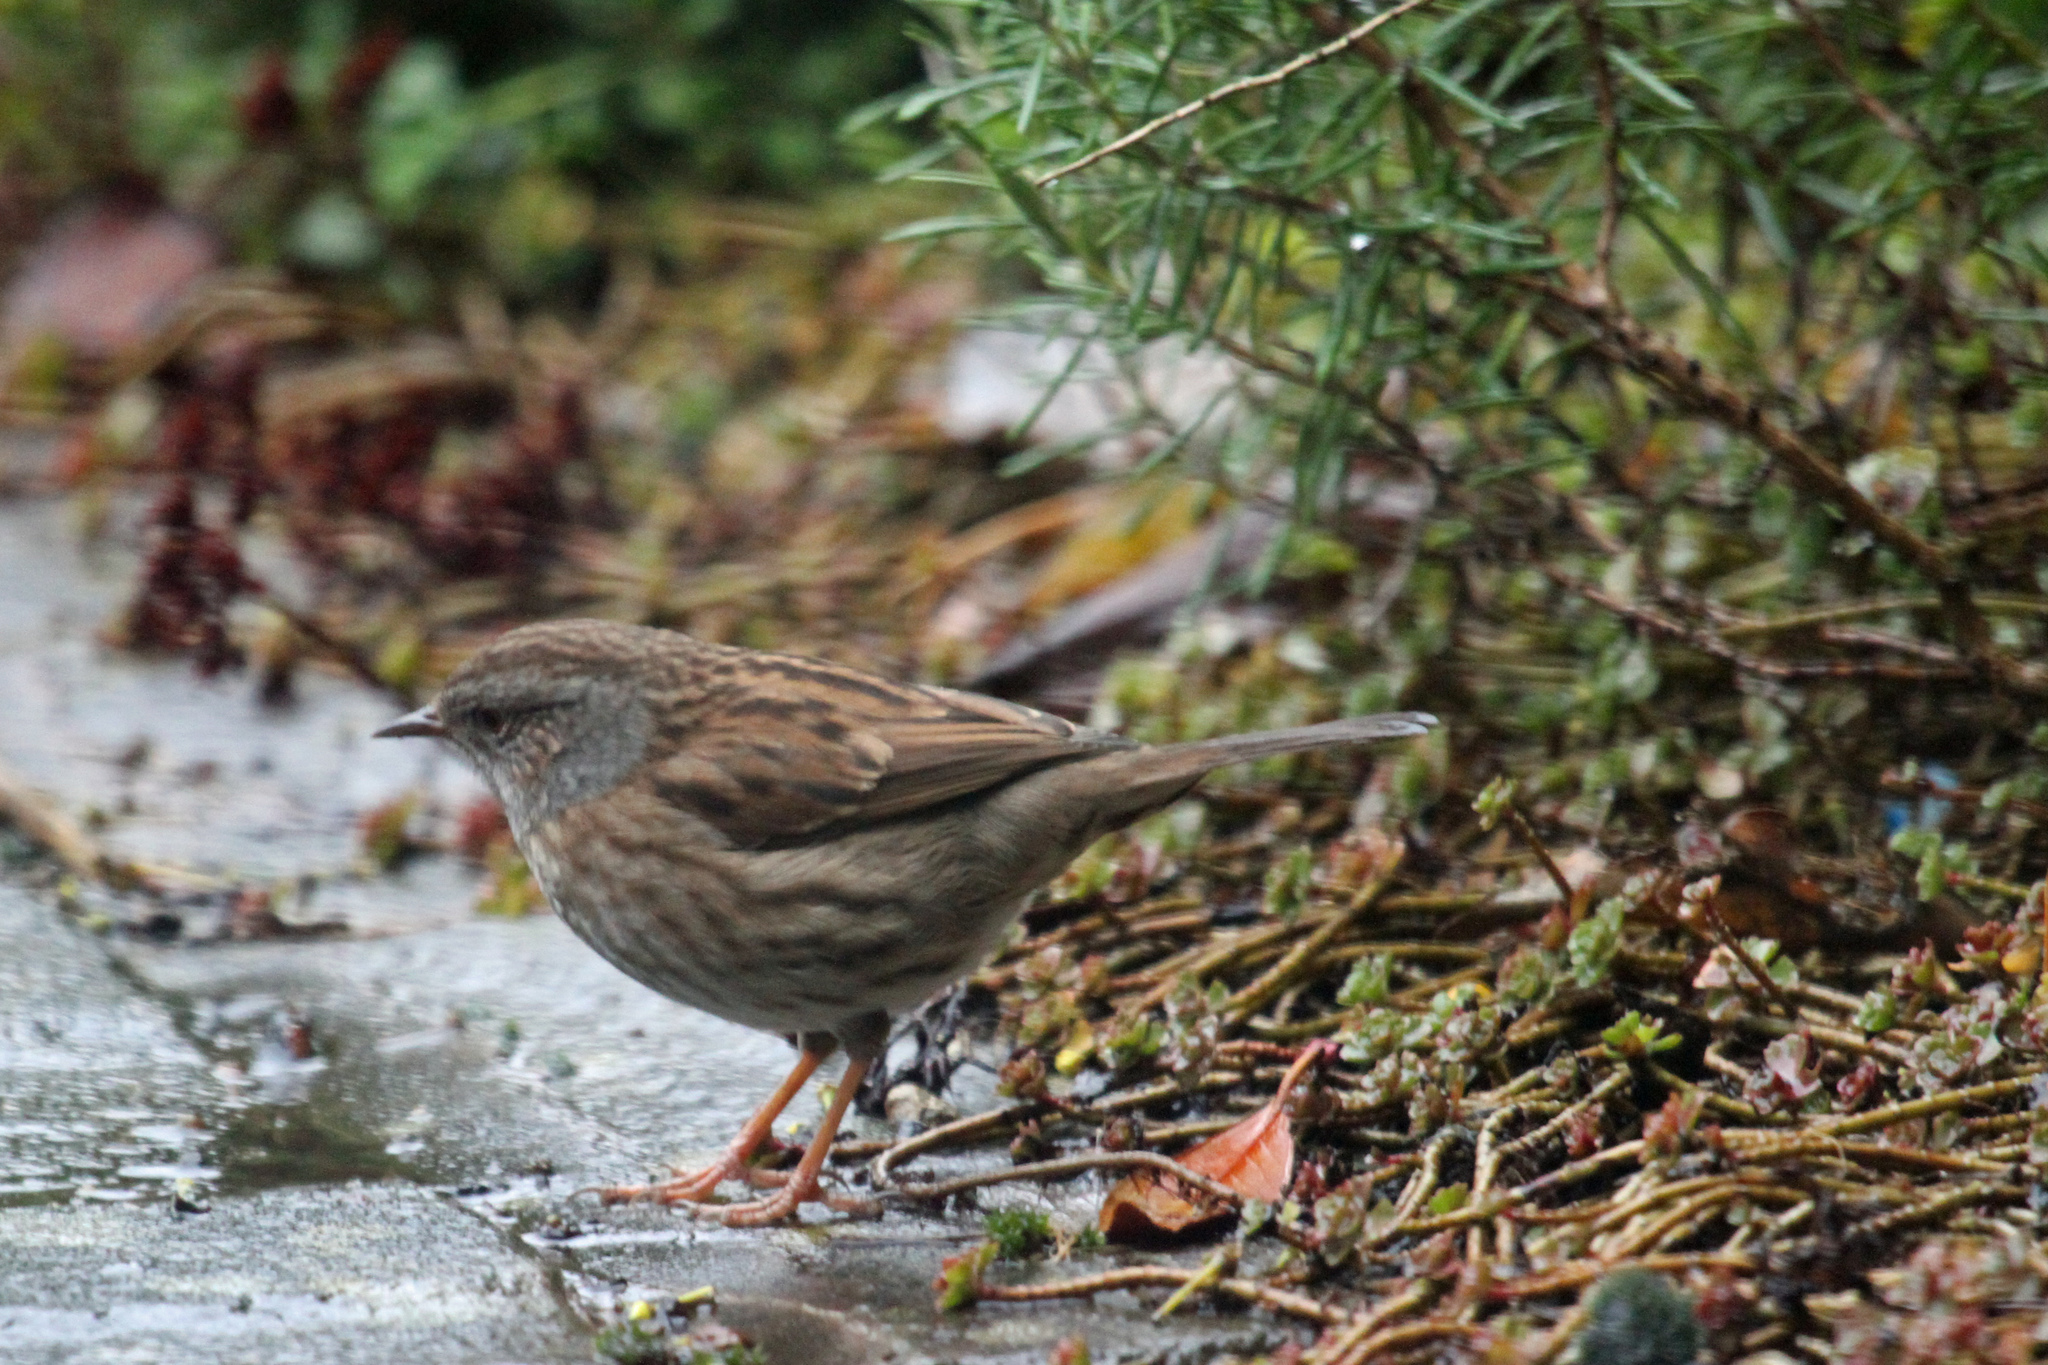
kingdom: Animalia
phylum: Chordata
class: Aves
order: Passeriformes
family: Prunellidae
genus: Prunella
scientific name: Prunella modularis
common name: Dunnock
